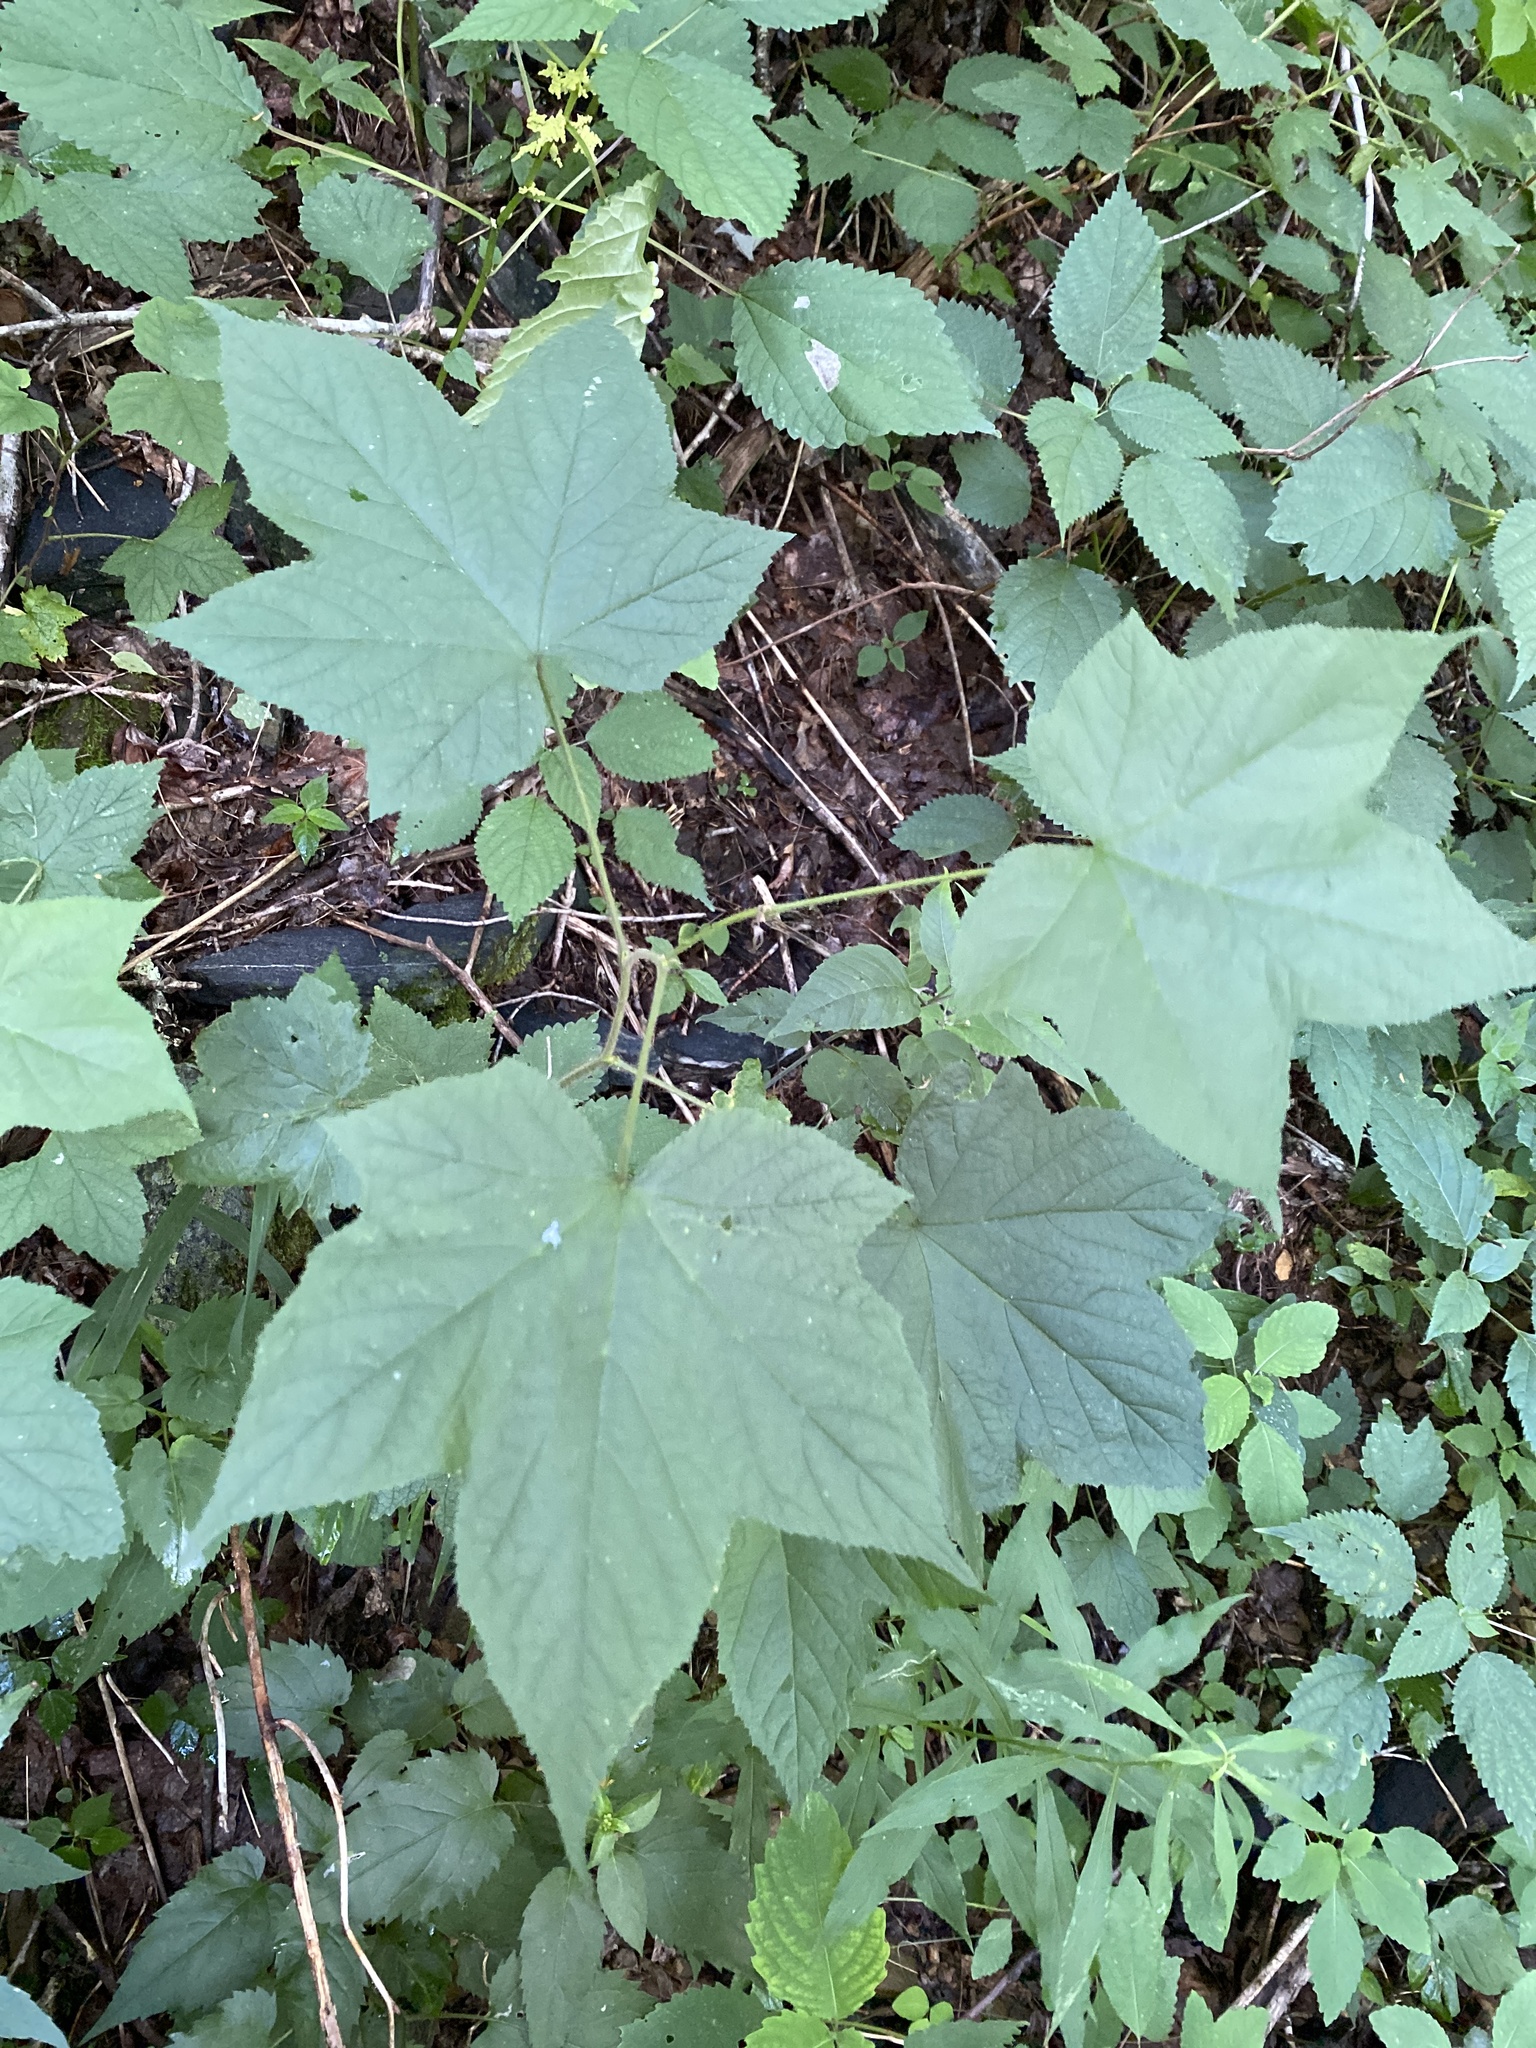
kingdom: Plantae
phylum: Tracheophyta
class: Magnoliopsida
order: Rosales
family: Rosaceae
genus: Rubus
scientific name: Rubus odoratus
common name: Purple-flowered raspberry
